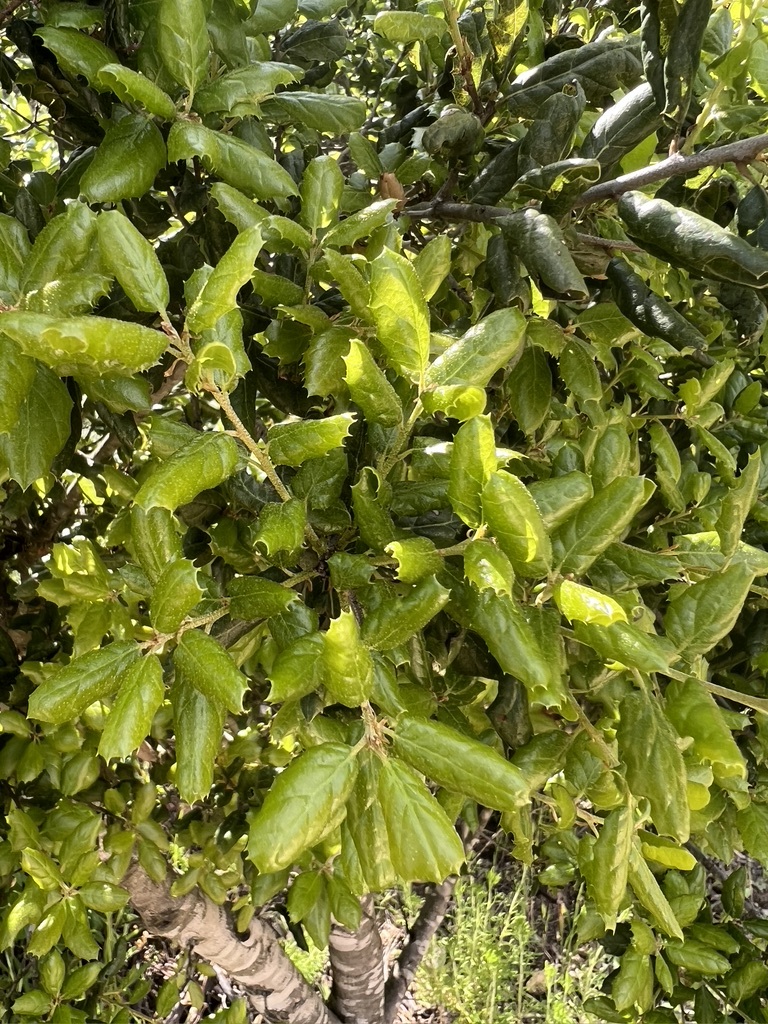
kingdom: Plantae
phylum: Tracheophyta
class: Magnoliopsida
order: Fagales
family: Fagaceae
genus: Quercus
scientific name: Quercus agrifolia
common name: California live oak
